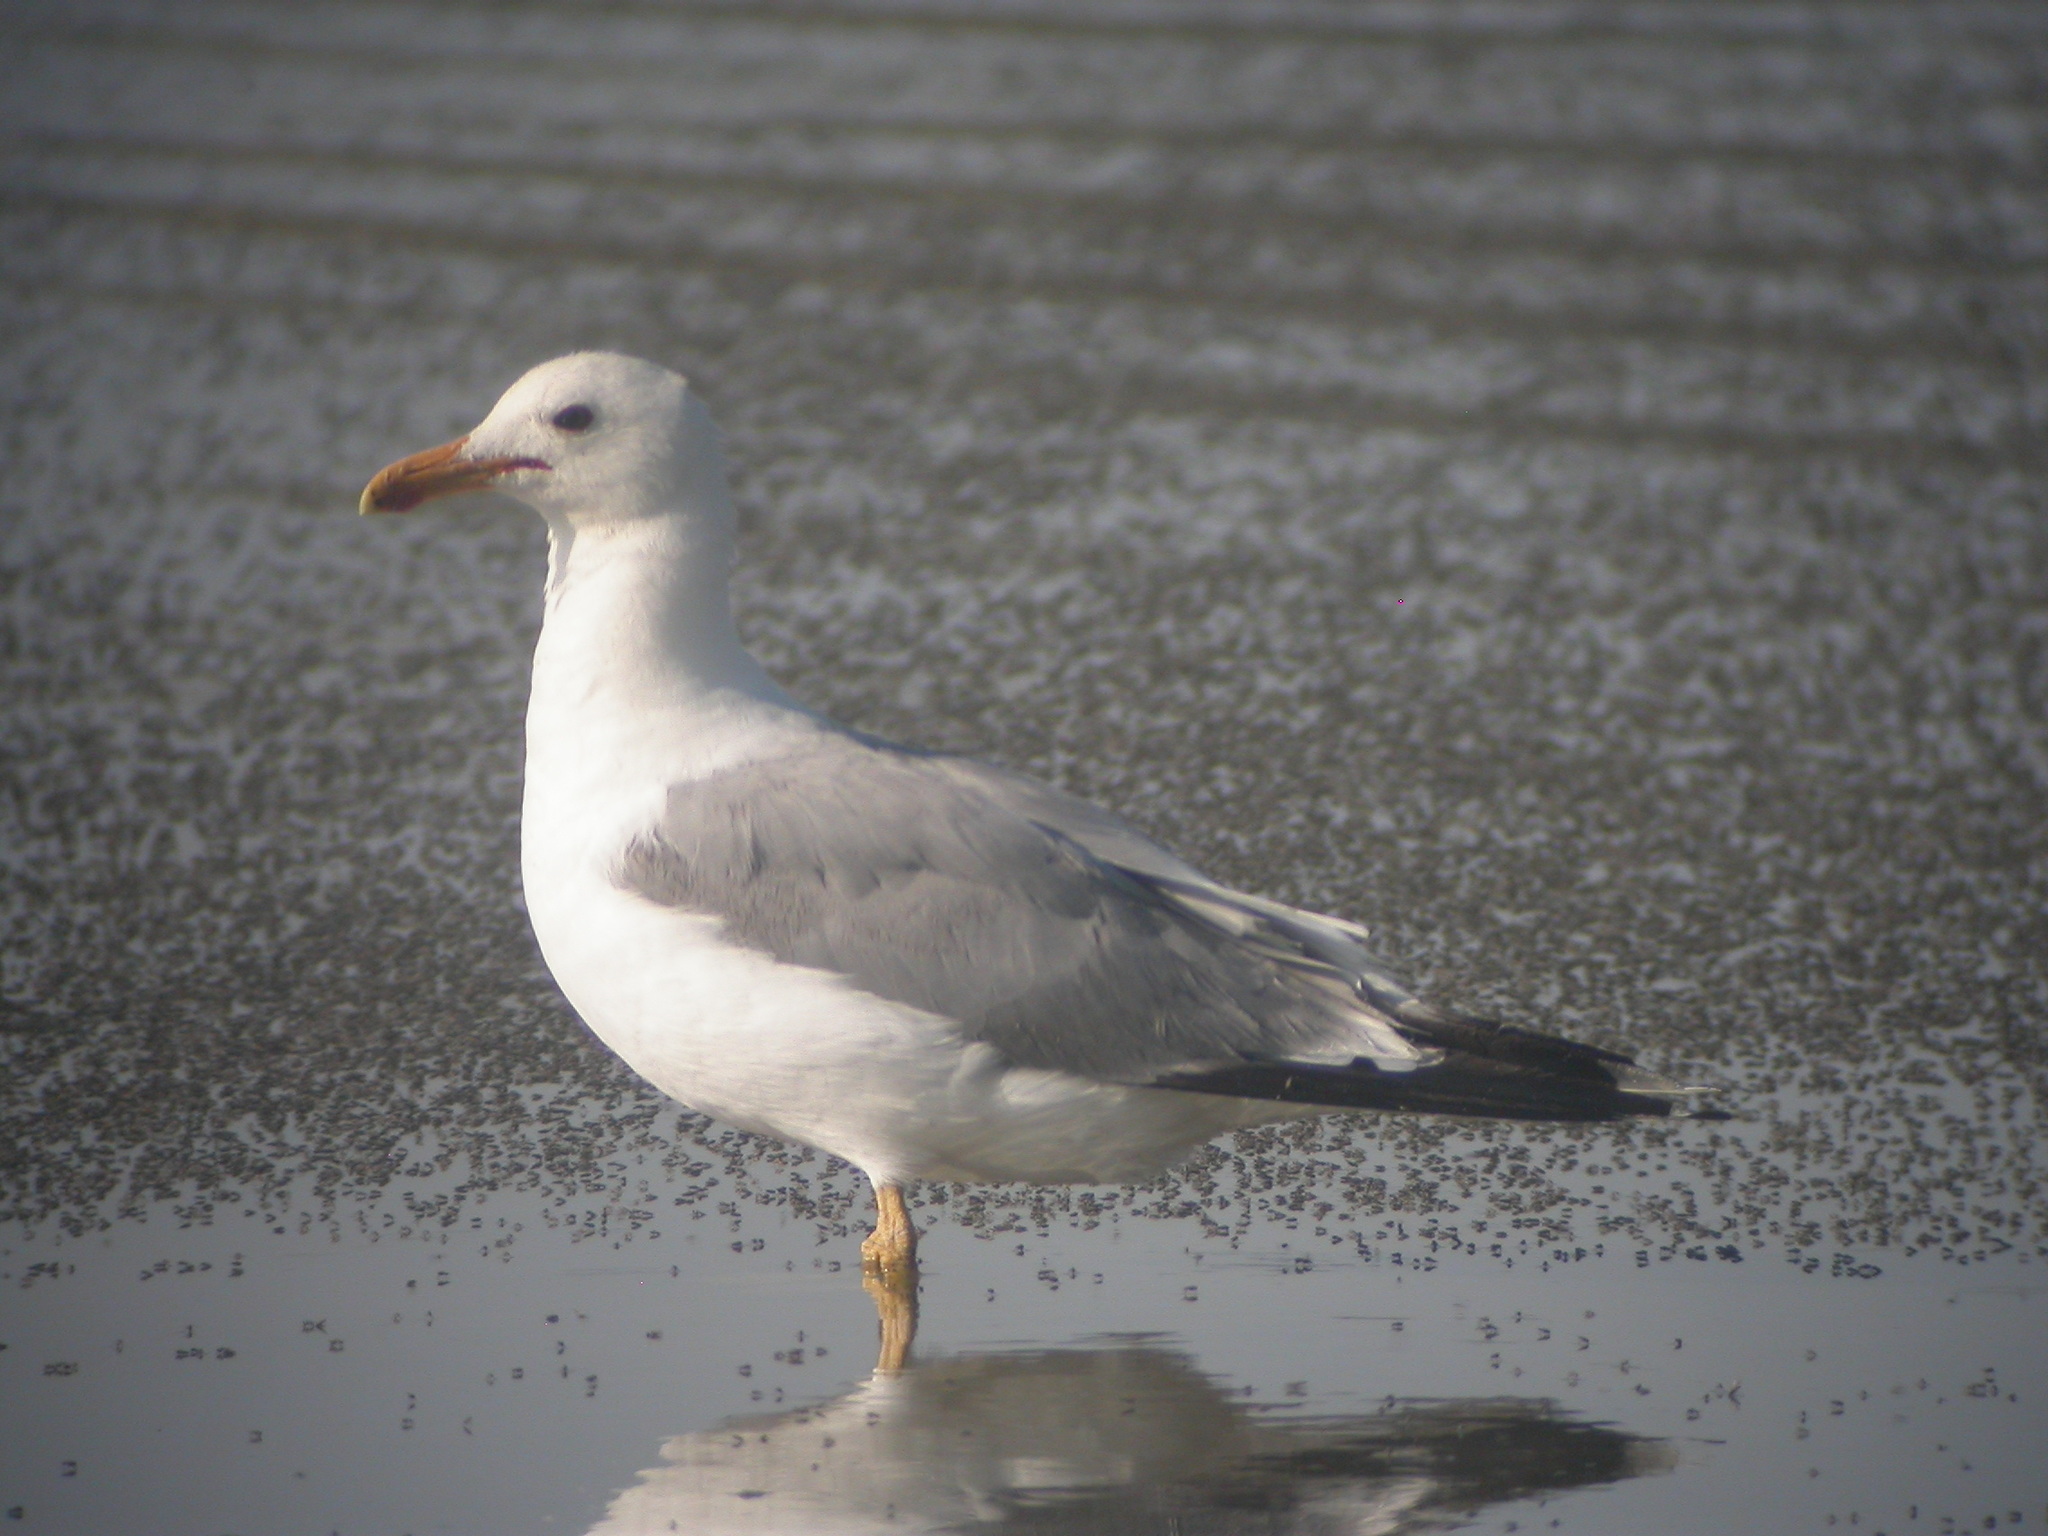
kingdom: Animalia
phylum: Chordata
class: Aves
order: Charadriiformes
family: Laridae
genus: Larus
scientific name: Larus californicus
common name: California gull
